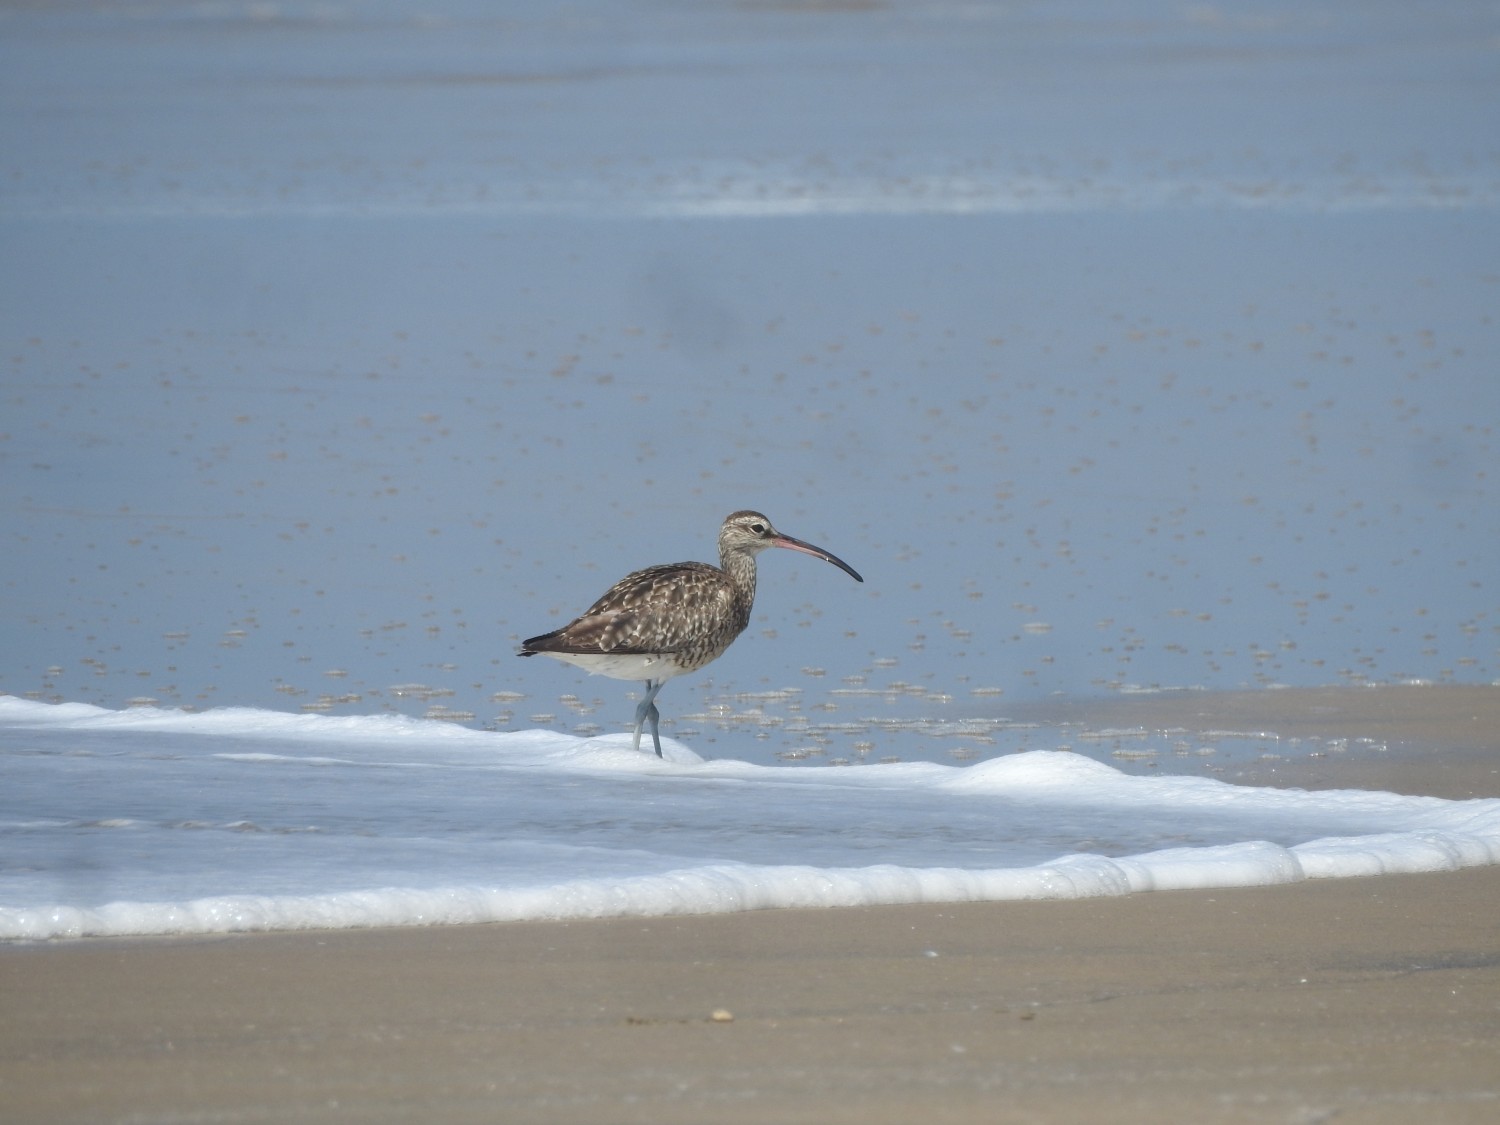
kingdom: Animalia
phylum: Chordata
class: Aves
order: Charadriiformes
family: Scolopacidae
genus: Numenius
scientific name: Numenius phaeopus
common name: Whimbrel
